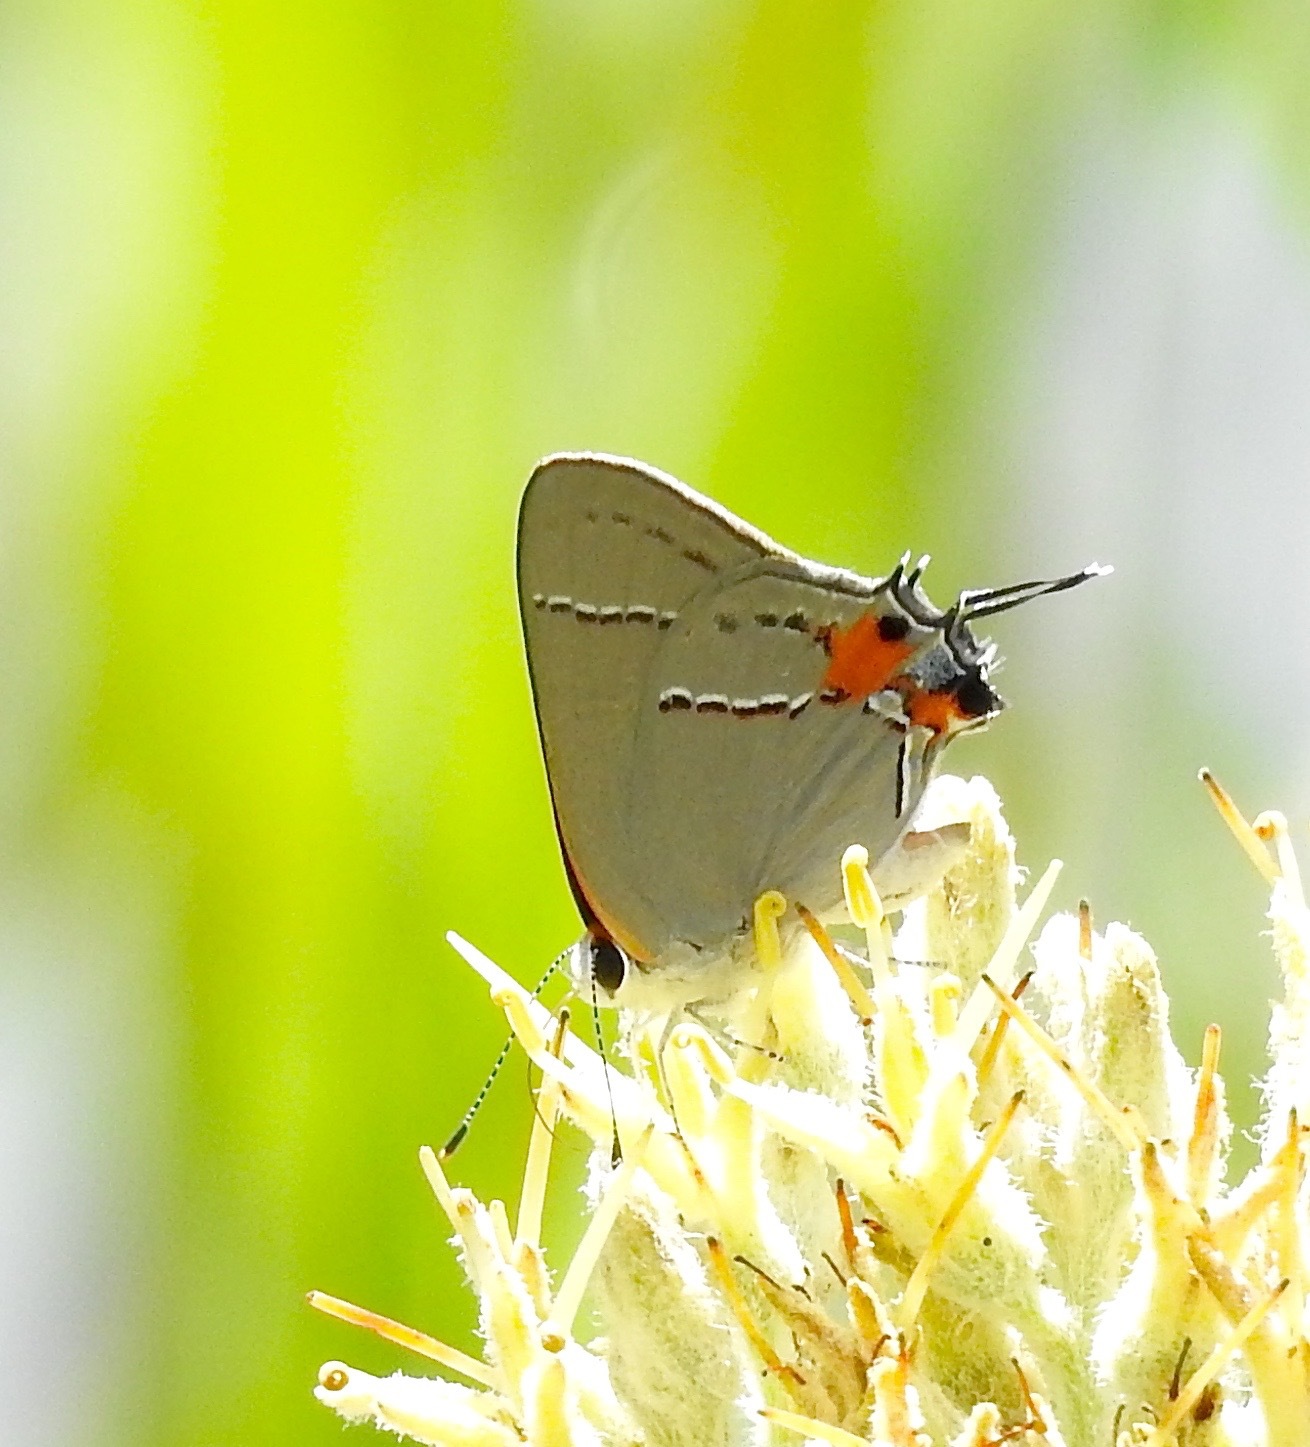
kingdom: Animalia
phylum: Arthropoda
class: Insecta
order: Lepidoptera
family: Lycaenidae
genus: Strymon
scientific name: Strymon melinus
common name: Gray hairstreak
